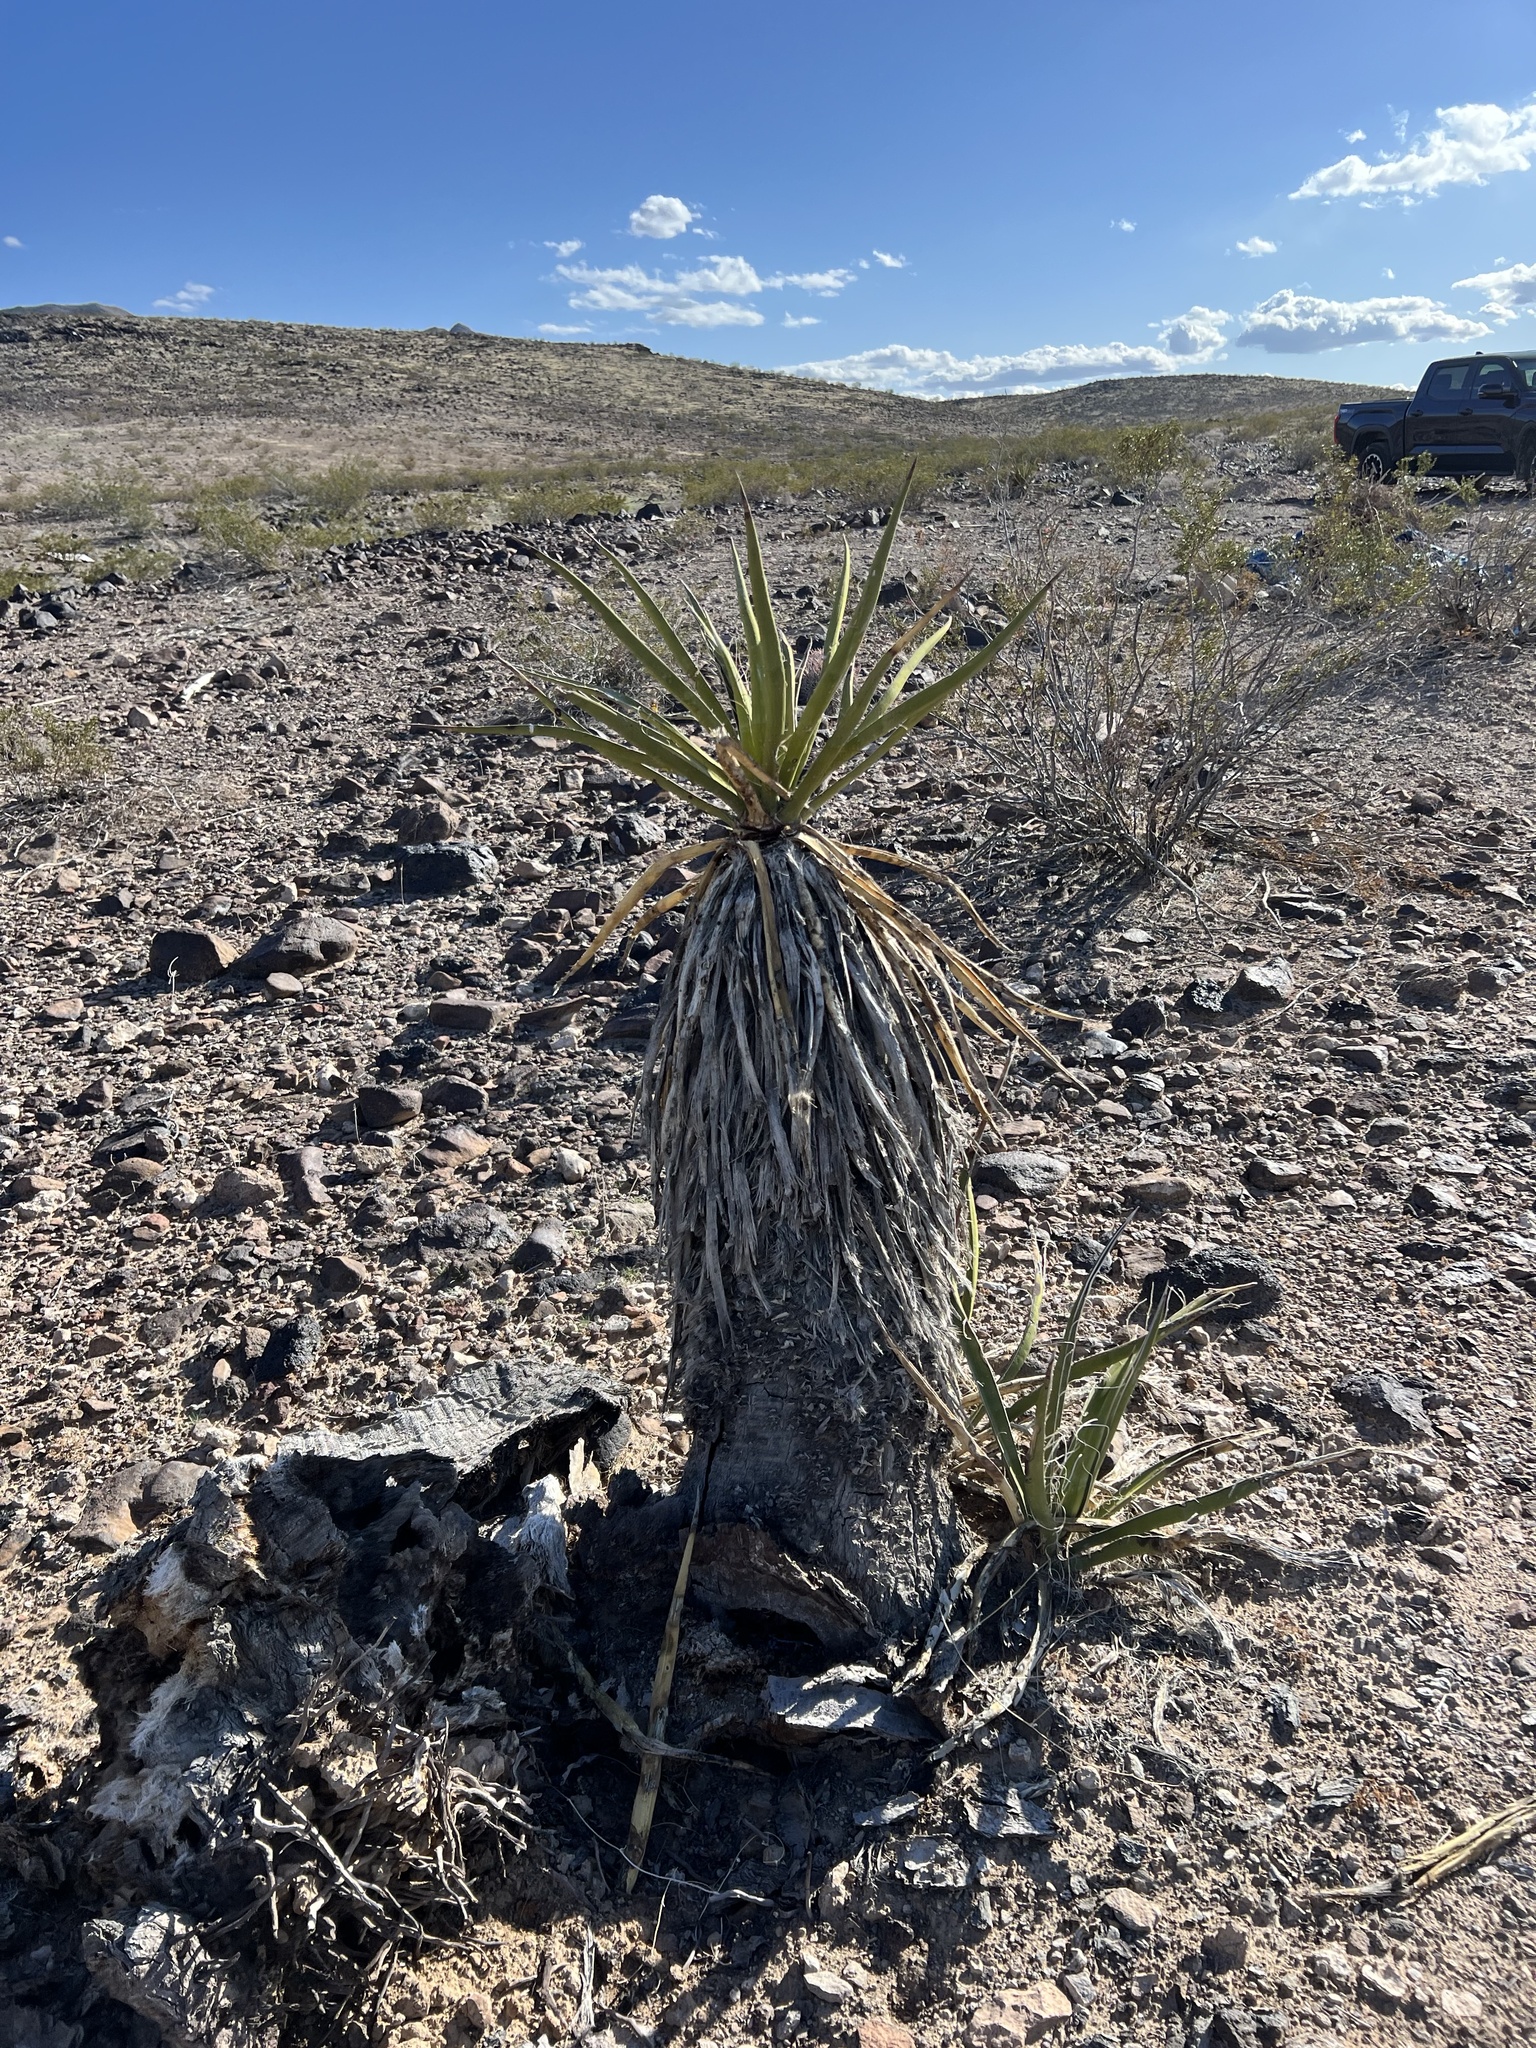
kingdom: Plantae
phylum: Tracheophyta
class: Liliopsida
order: Asparagales
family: Asparagaceae
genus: Yucca
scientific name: Yucca schidigera
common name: Mojave yucca
